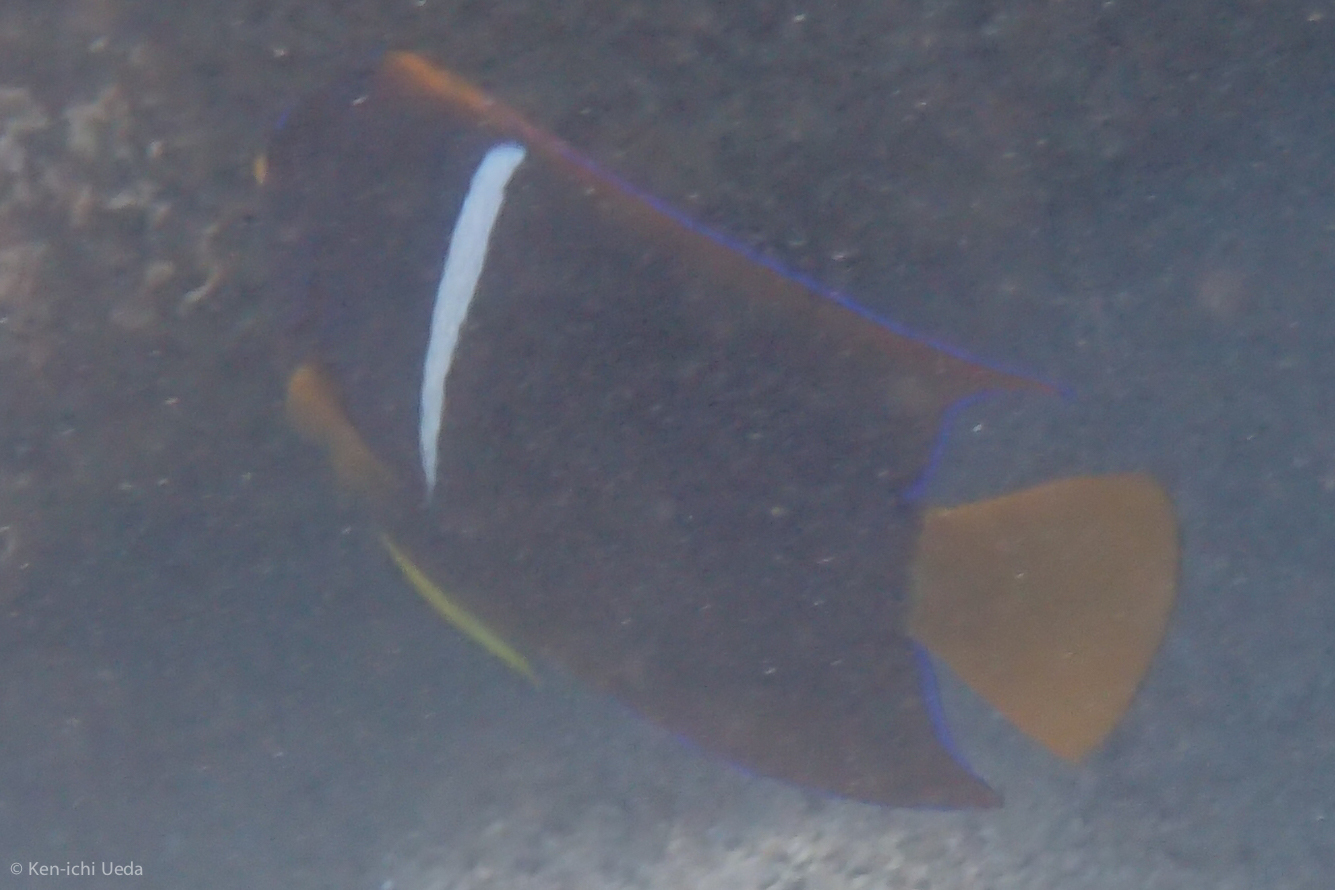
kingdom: Animalia
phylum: Chordata
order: Perciformes
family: Pomacanthidae
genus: Holacanthus
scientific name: Holacanthus passer
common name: King angelfish
